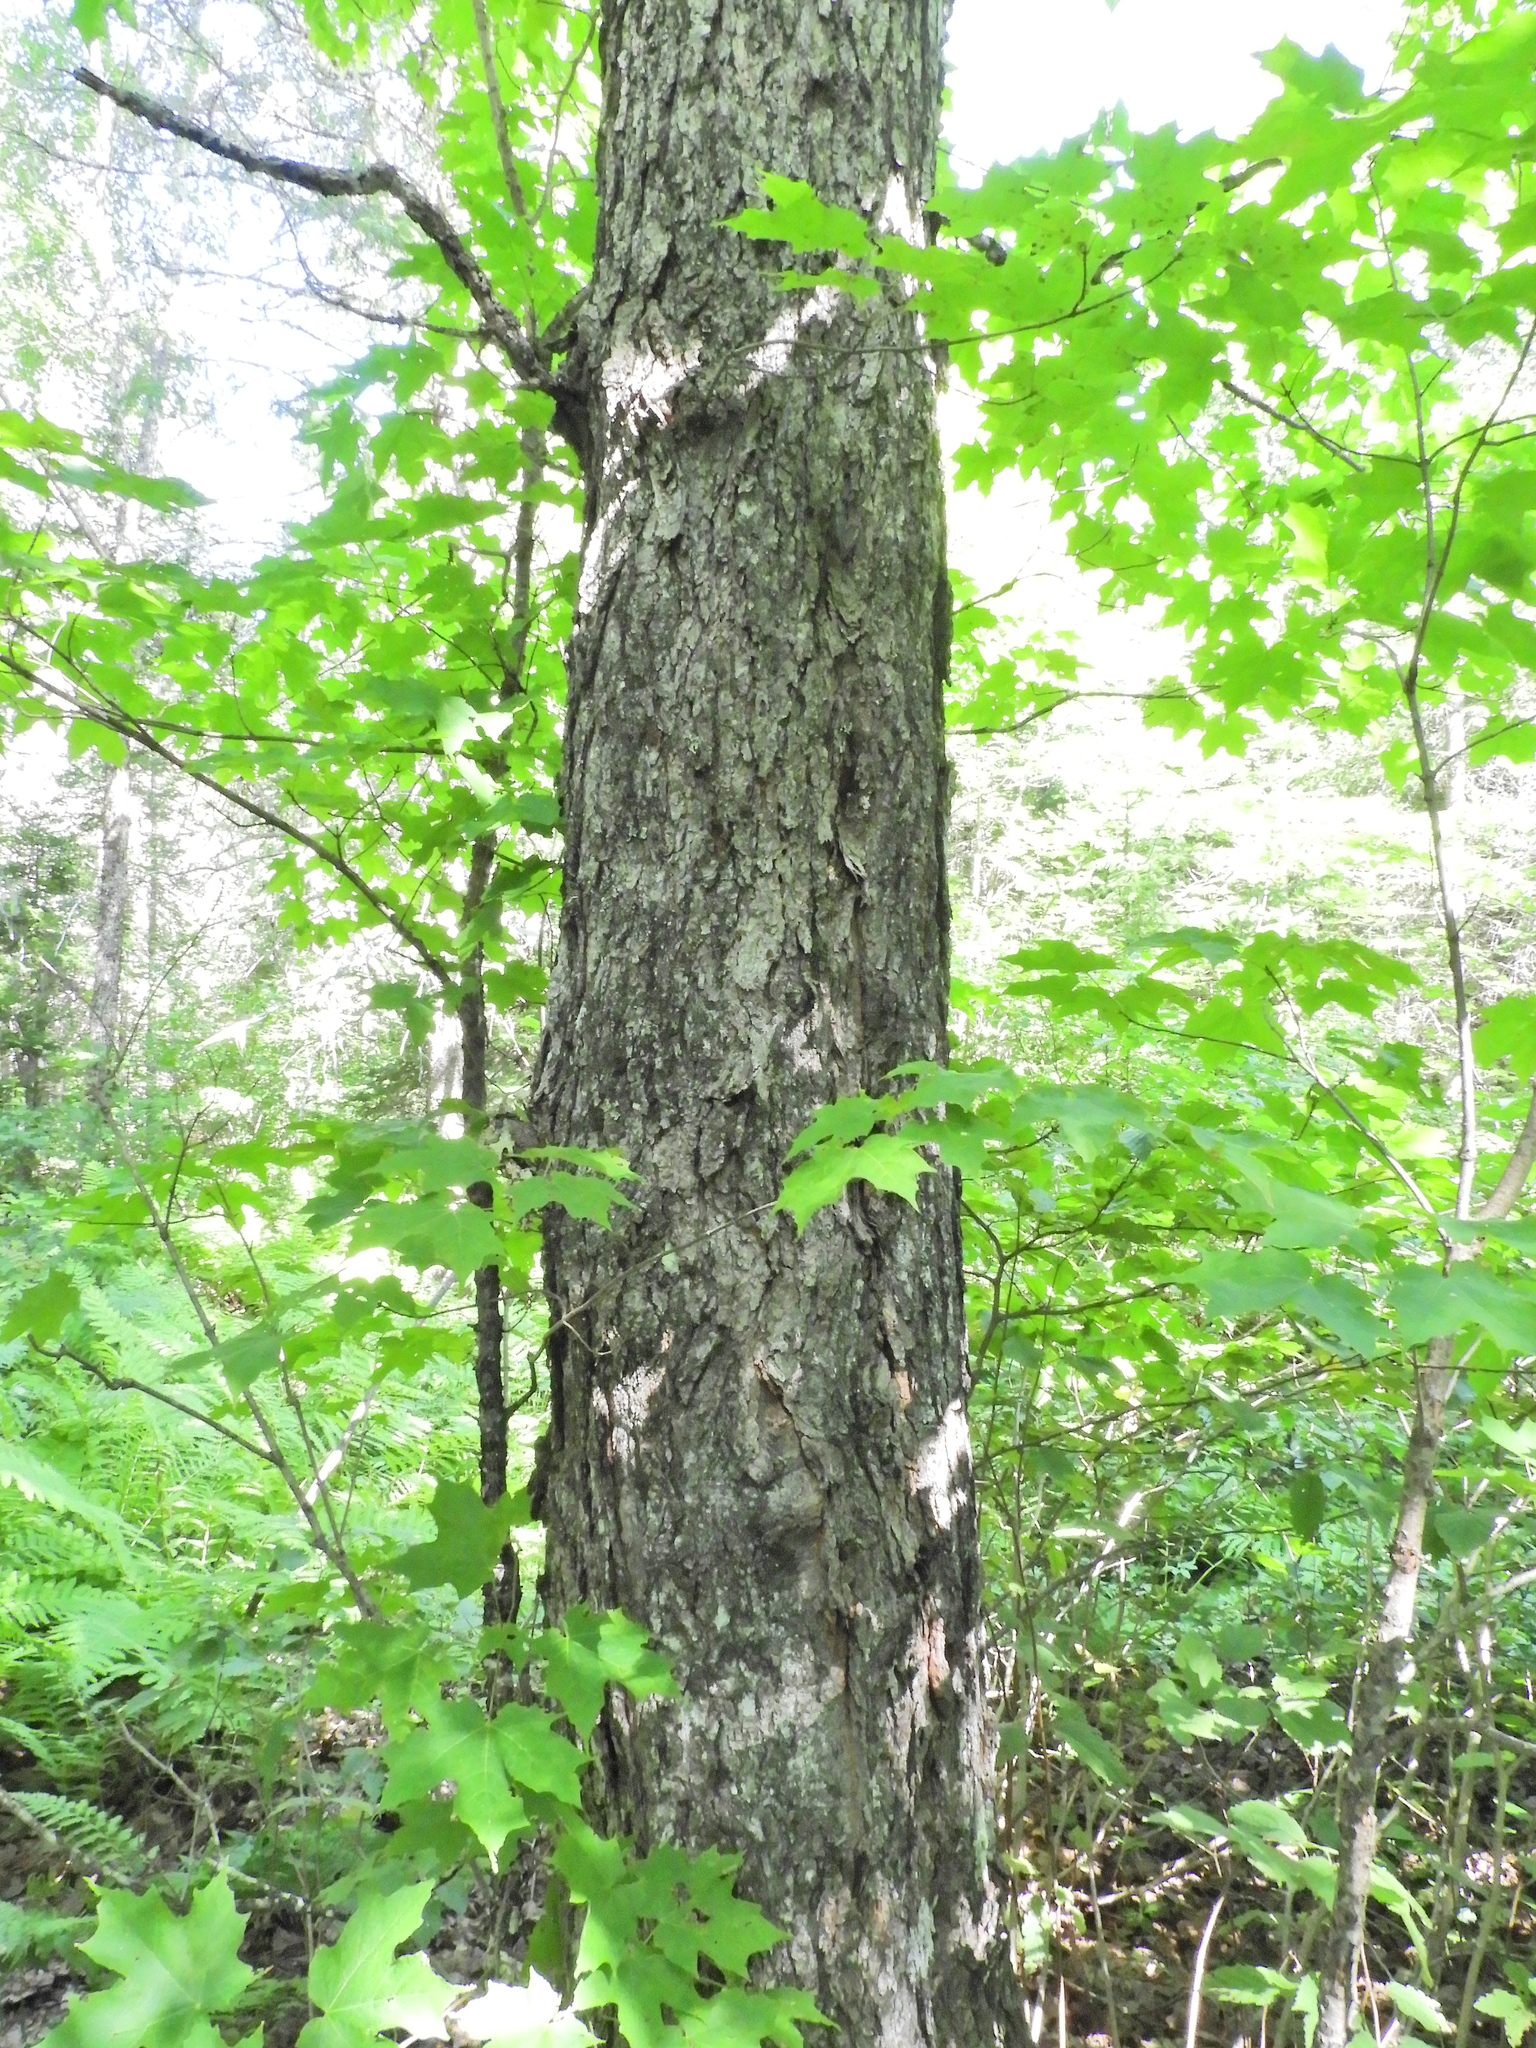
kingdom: Plantae
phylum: Tracheophyta
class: Magnoliopsida
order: Sapindales
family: Sapindaceae
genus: Acer
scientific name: Acer saccharum
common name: Sugar maple
